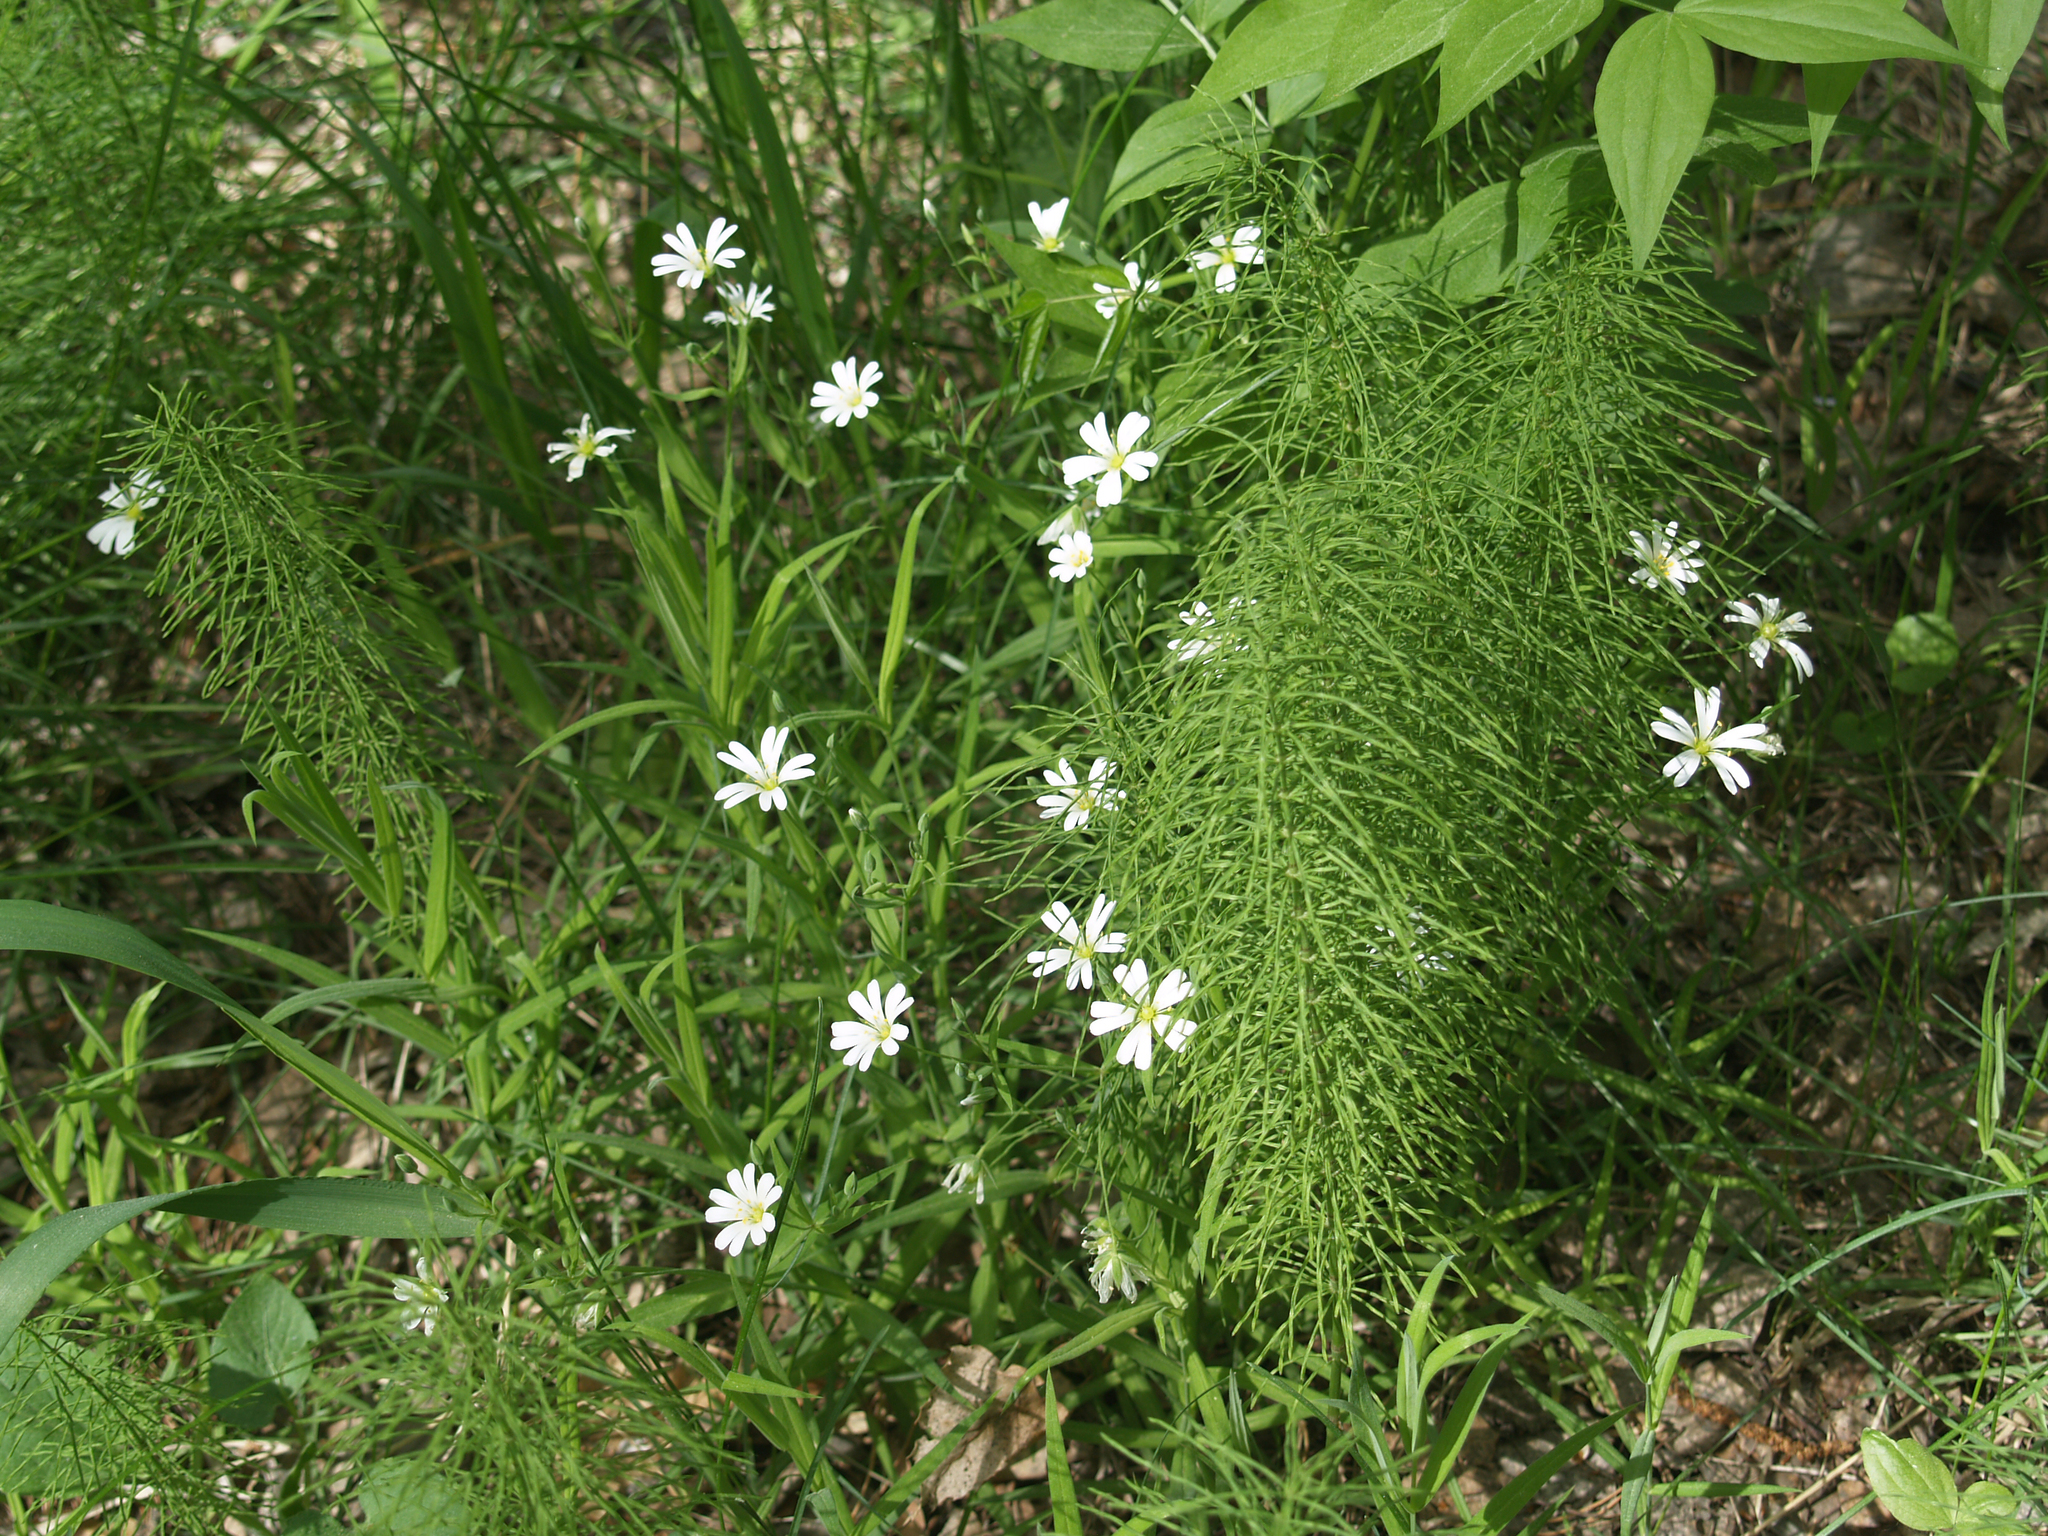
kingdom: Plantae
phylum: Tracheophyta
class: Magnoliopsida
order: Caryophyllales
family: Caryophyllaceae
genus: Rabelera
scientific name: Rabelera holostea
